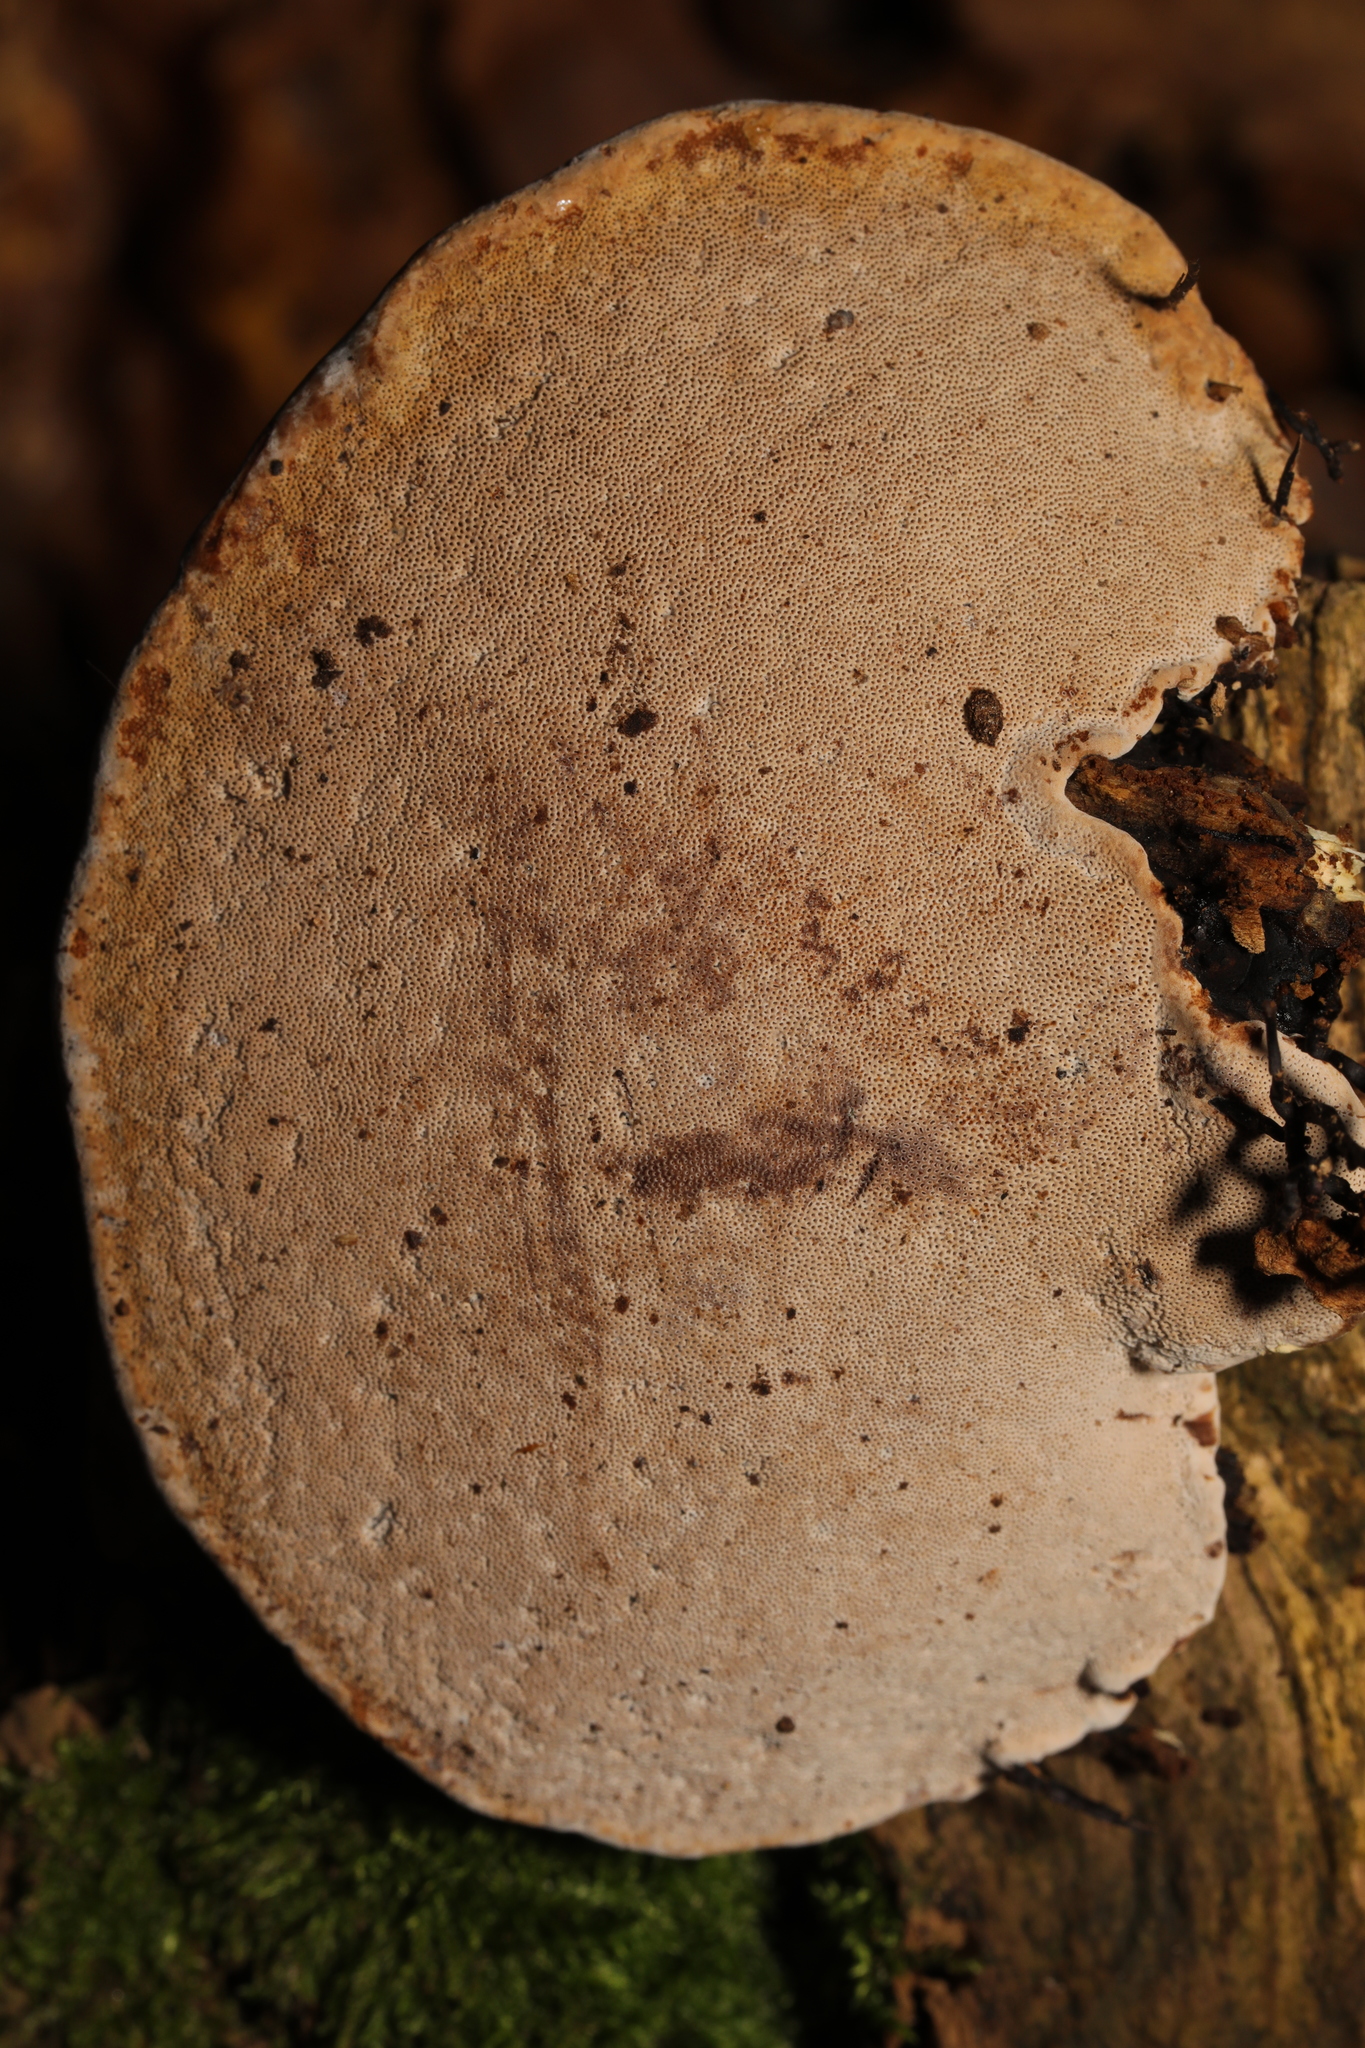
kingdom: Fungi
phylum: Basidiomycota
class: Agaricomycetes
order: Polyporales
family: Fomitopsidaceae
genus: Fomitopsis
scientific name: Fomitopsis pinicola
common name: Red-belted bracket
